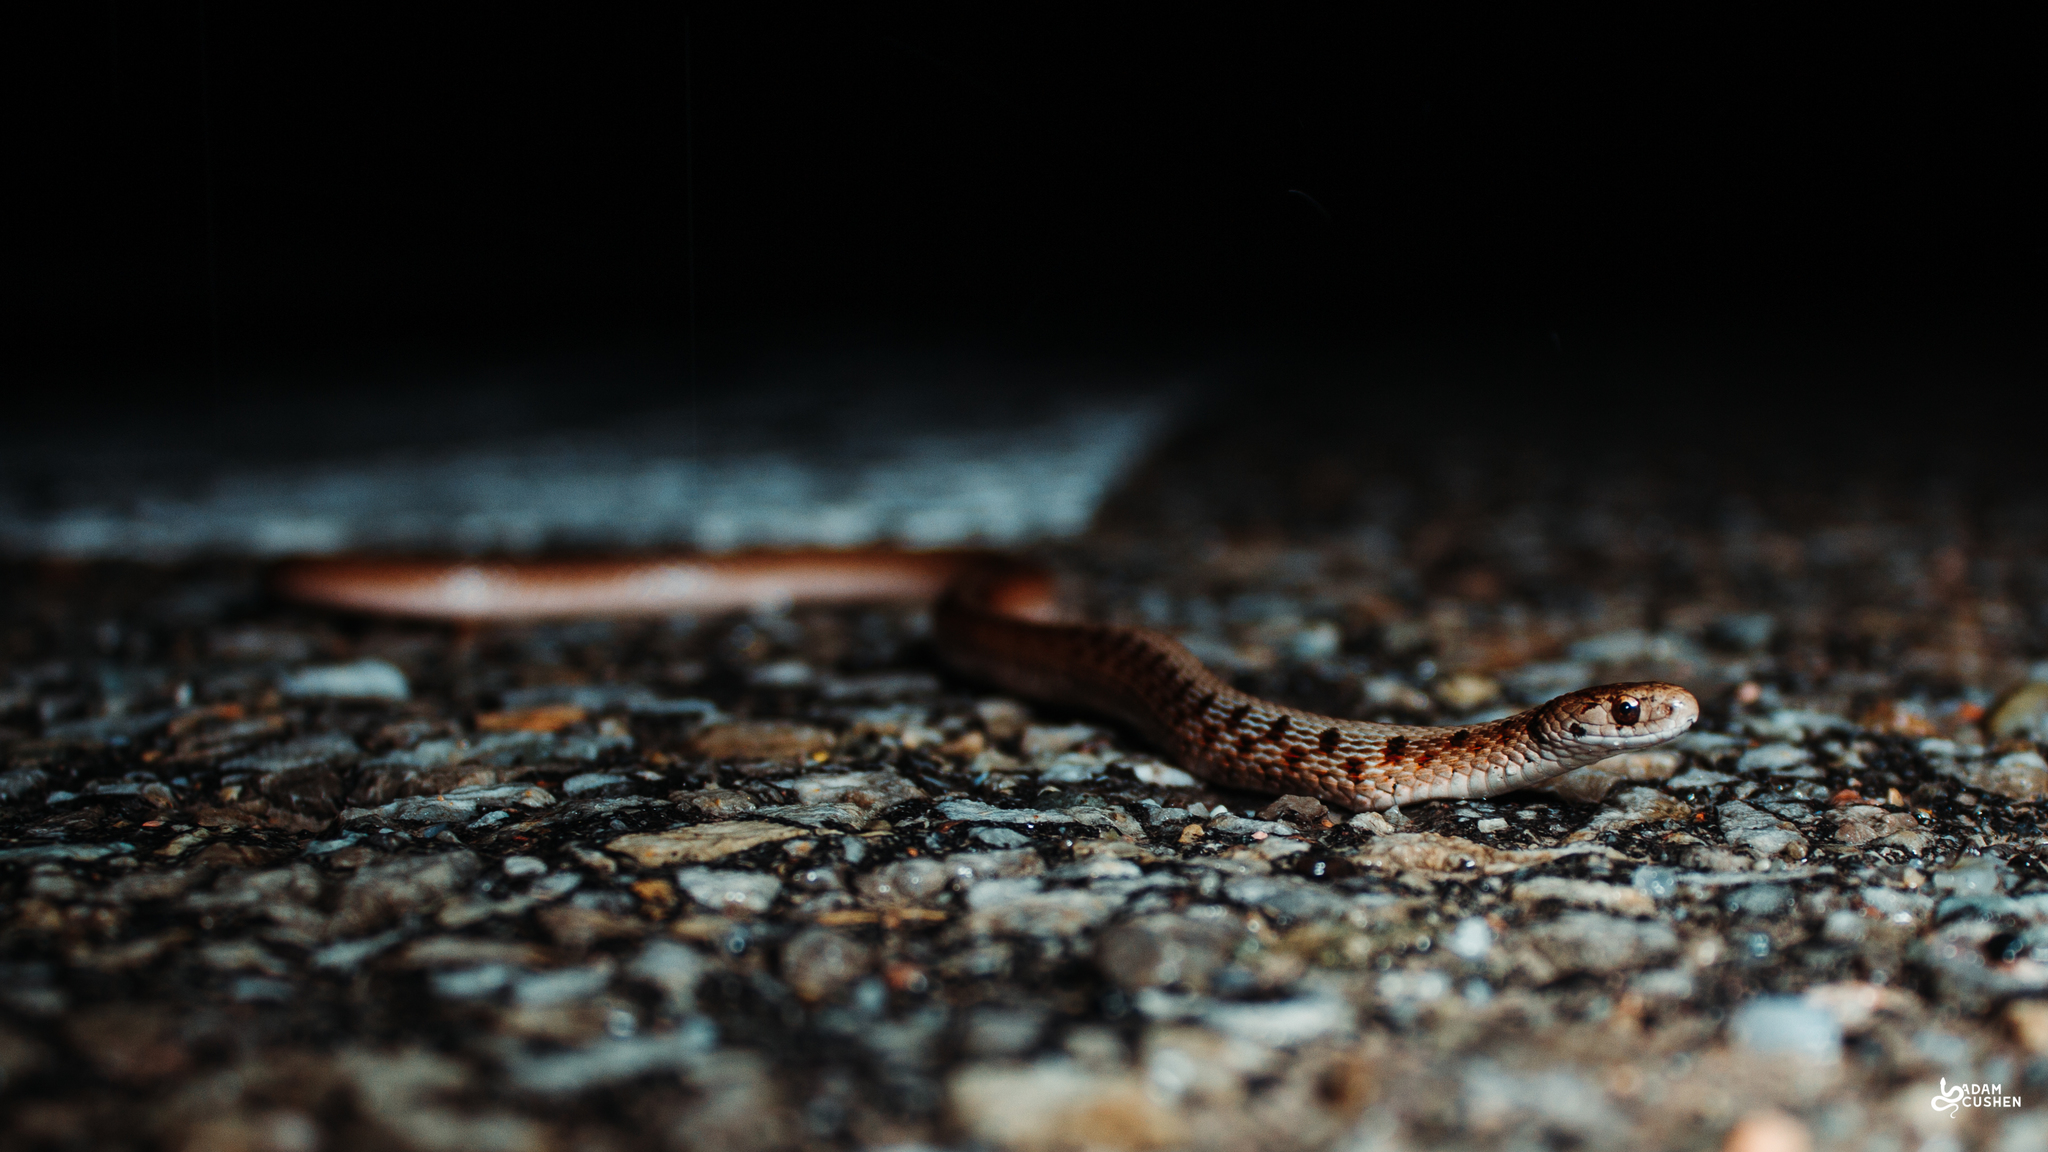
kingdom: Animalia
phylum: Chordata
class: Squamata
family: Colubridae
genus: Storeria
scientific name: Storeria dekayi
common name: (dekay’s) brown snake
